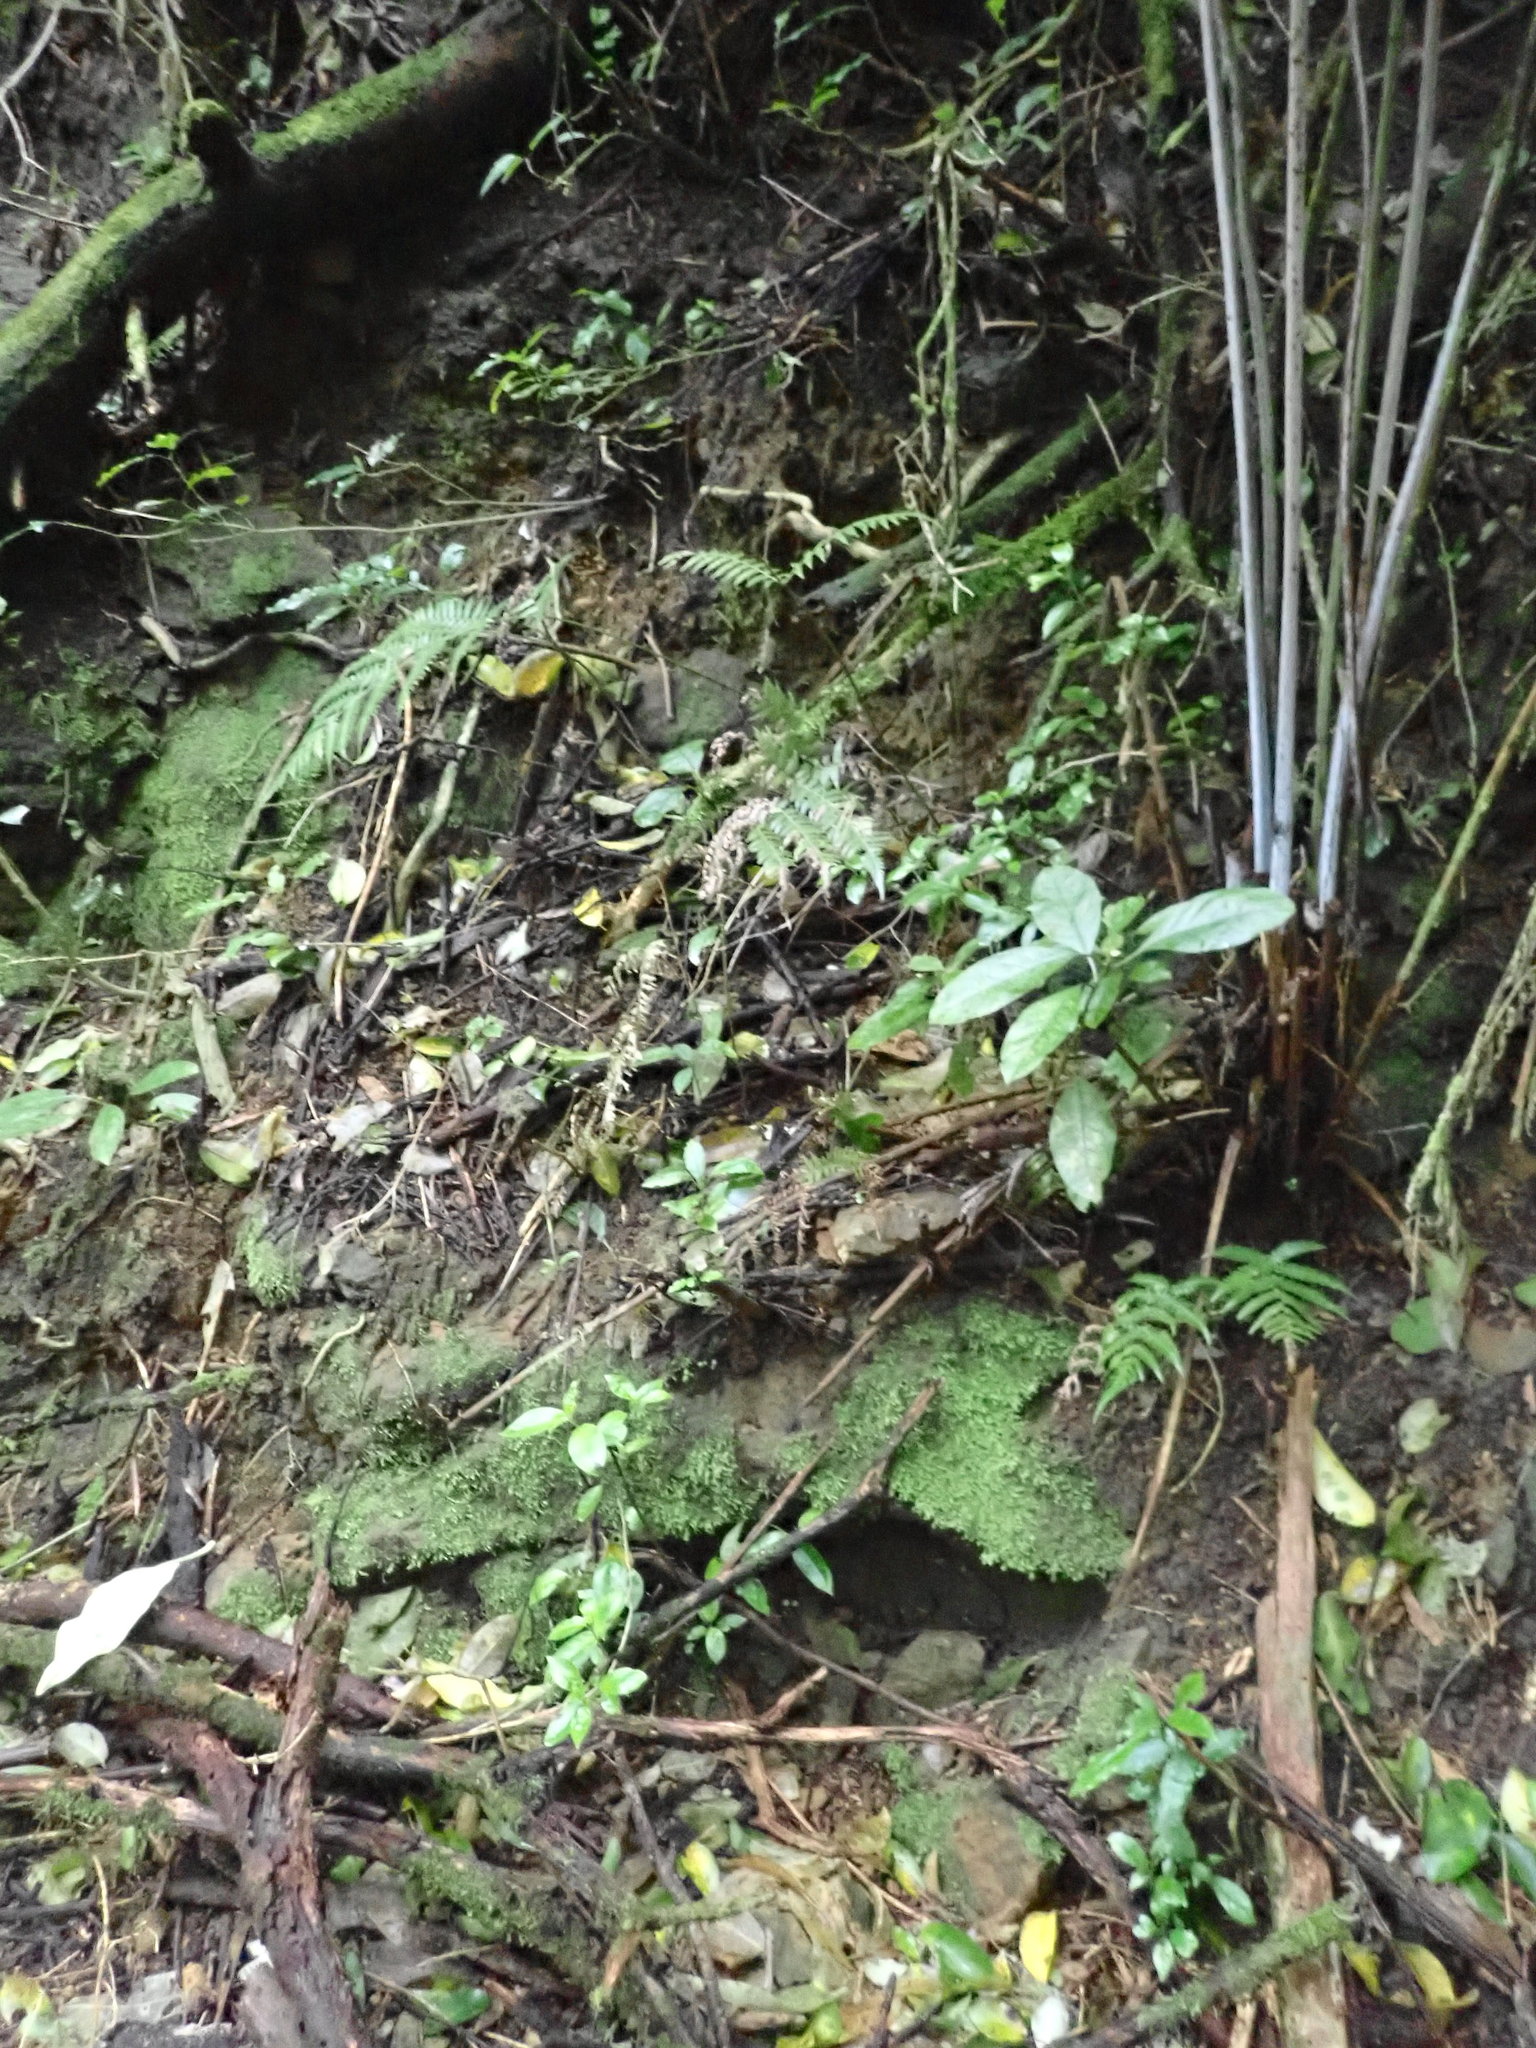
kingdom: Plantae
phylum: Tracheophyta
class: Magnoliopsida
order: Gentianales
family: Loganiaceae
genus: Geniostoma
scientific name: Geniostoma ligustrifolium
